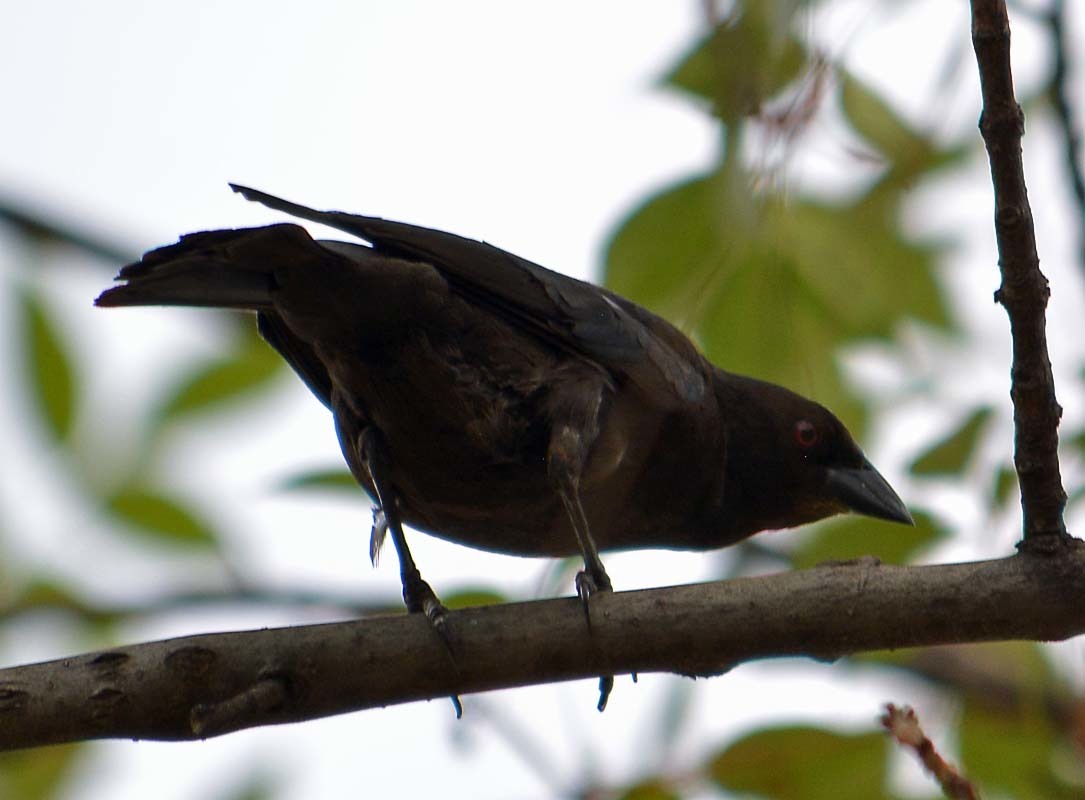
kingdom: Animalia
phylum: Chordata
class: Aves
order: Passeriformes
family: Icteridae
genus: Molothrus
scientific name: Molothrus aeneus
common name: Bronzed cowbird
